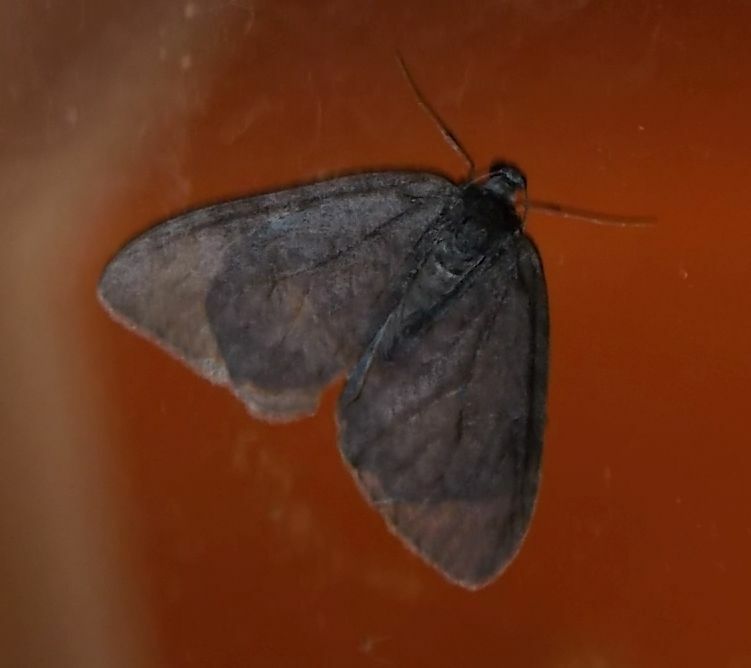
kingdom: Animalia
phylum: Arthropoda
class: Insecta
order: Lepidoptera
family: Geometridae
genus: Operophtera
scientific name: Operophtera brumata
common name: Winter moth
